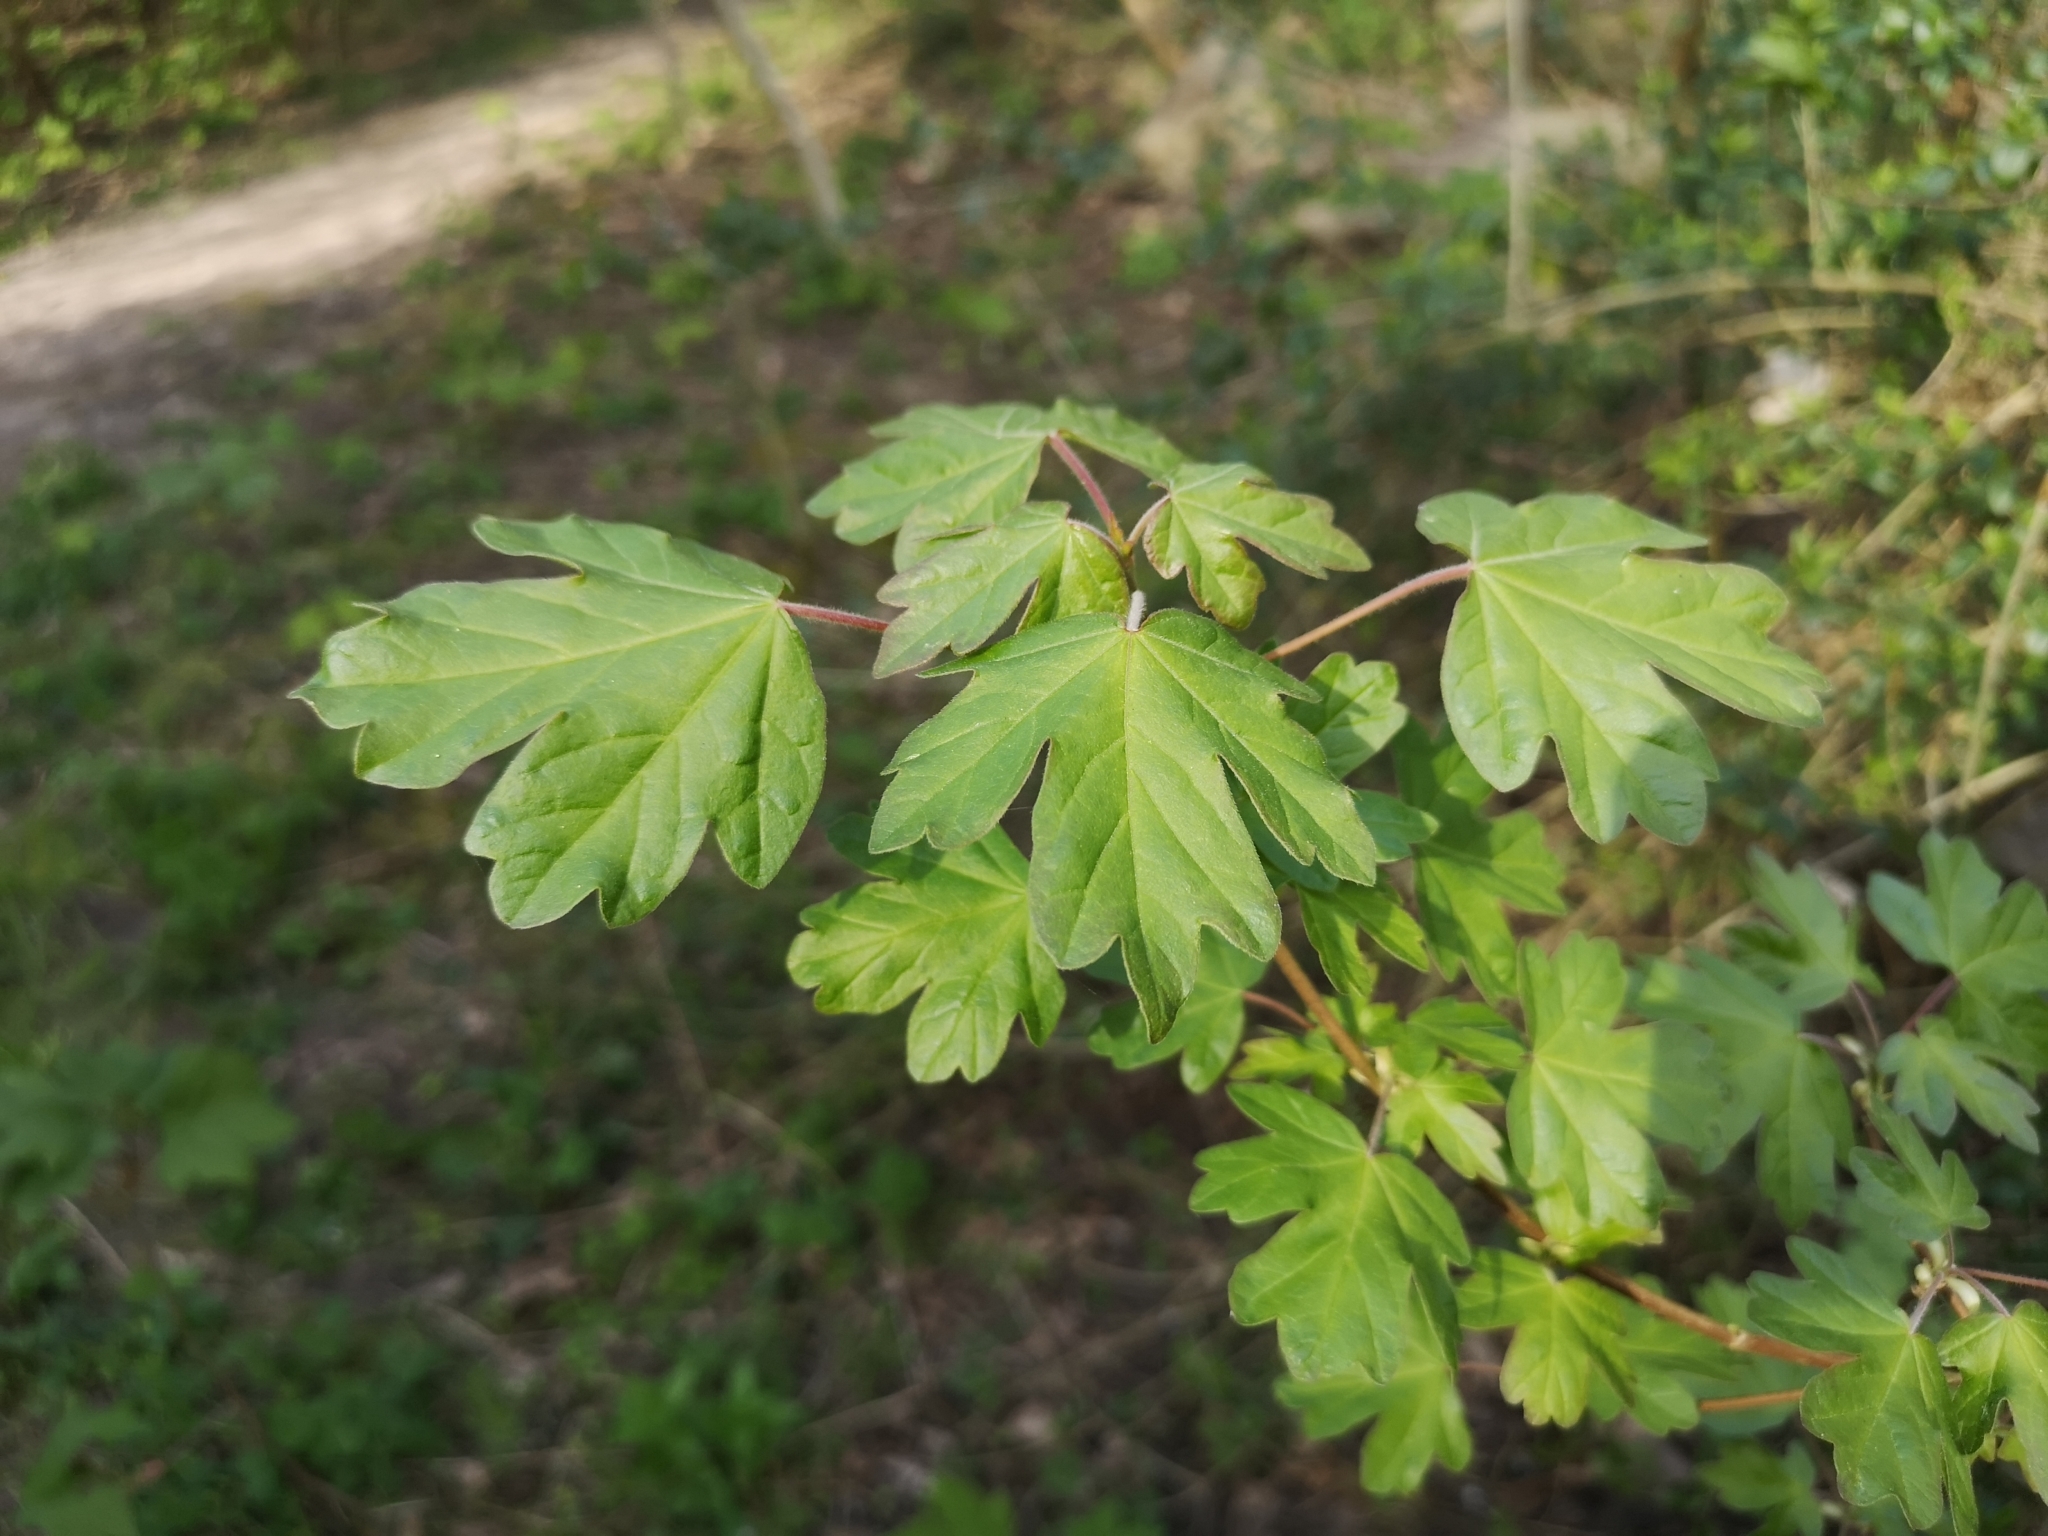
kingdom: Plantae
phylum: Tracheophyta
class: Magnoliopsida
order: Sapindales
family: Sapindaceae
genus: Acer
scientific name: Acer campestre
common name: Field maple
